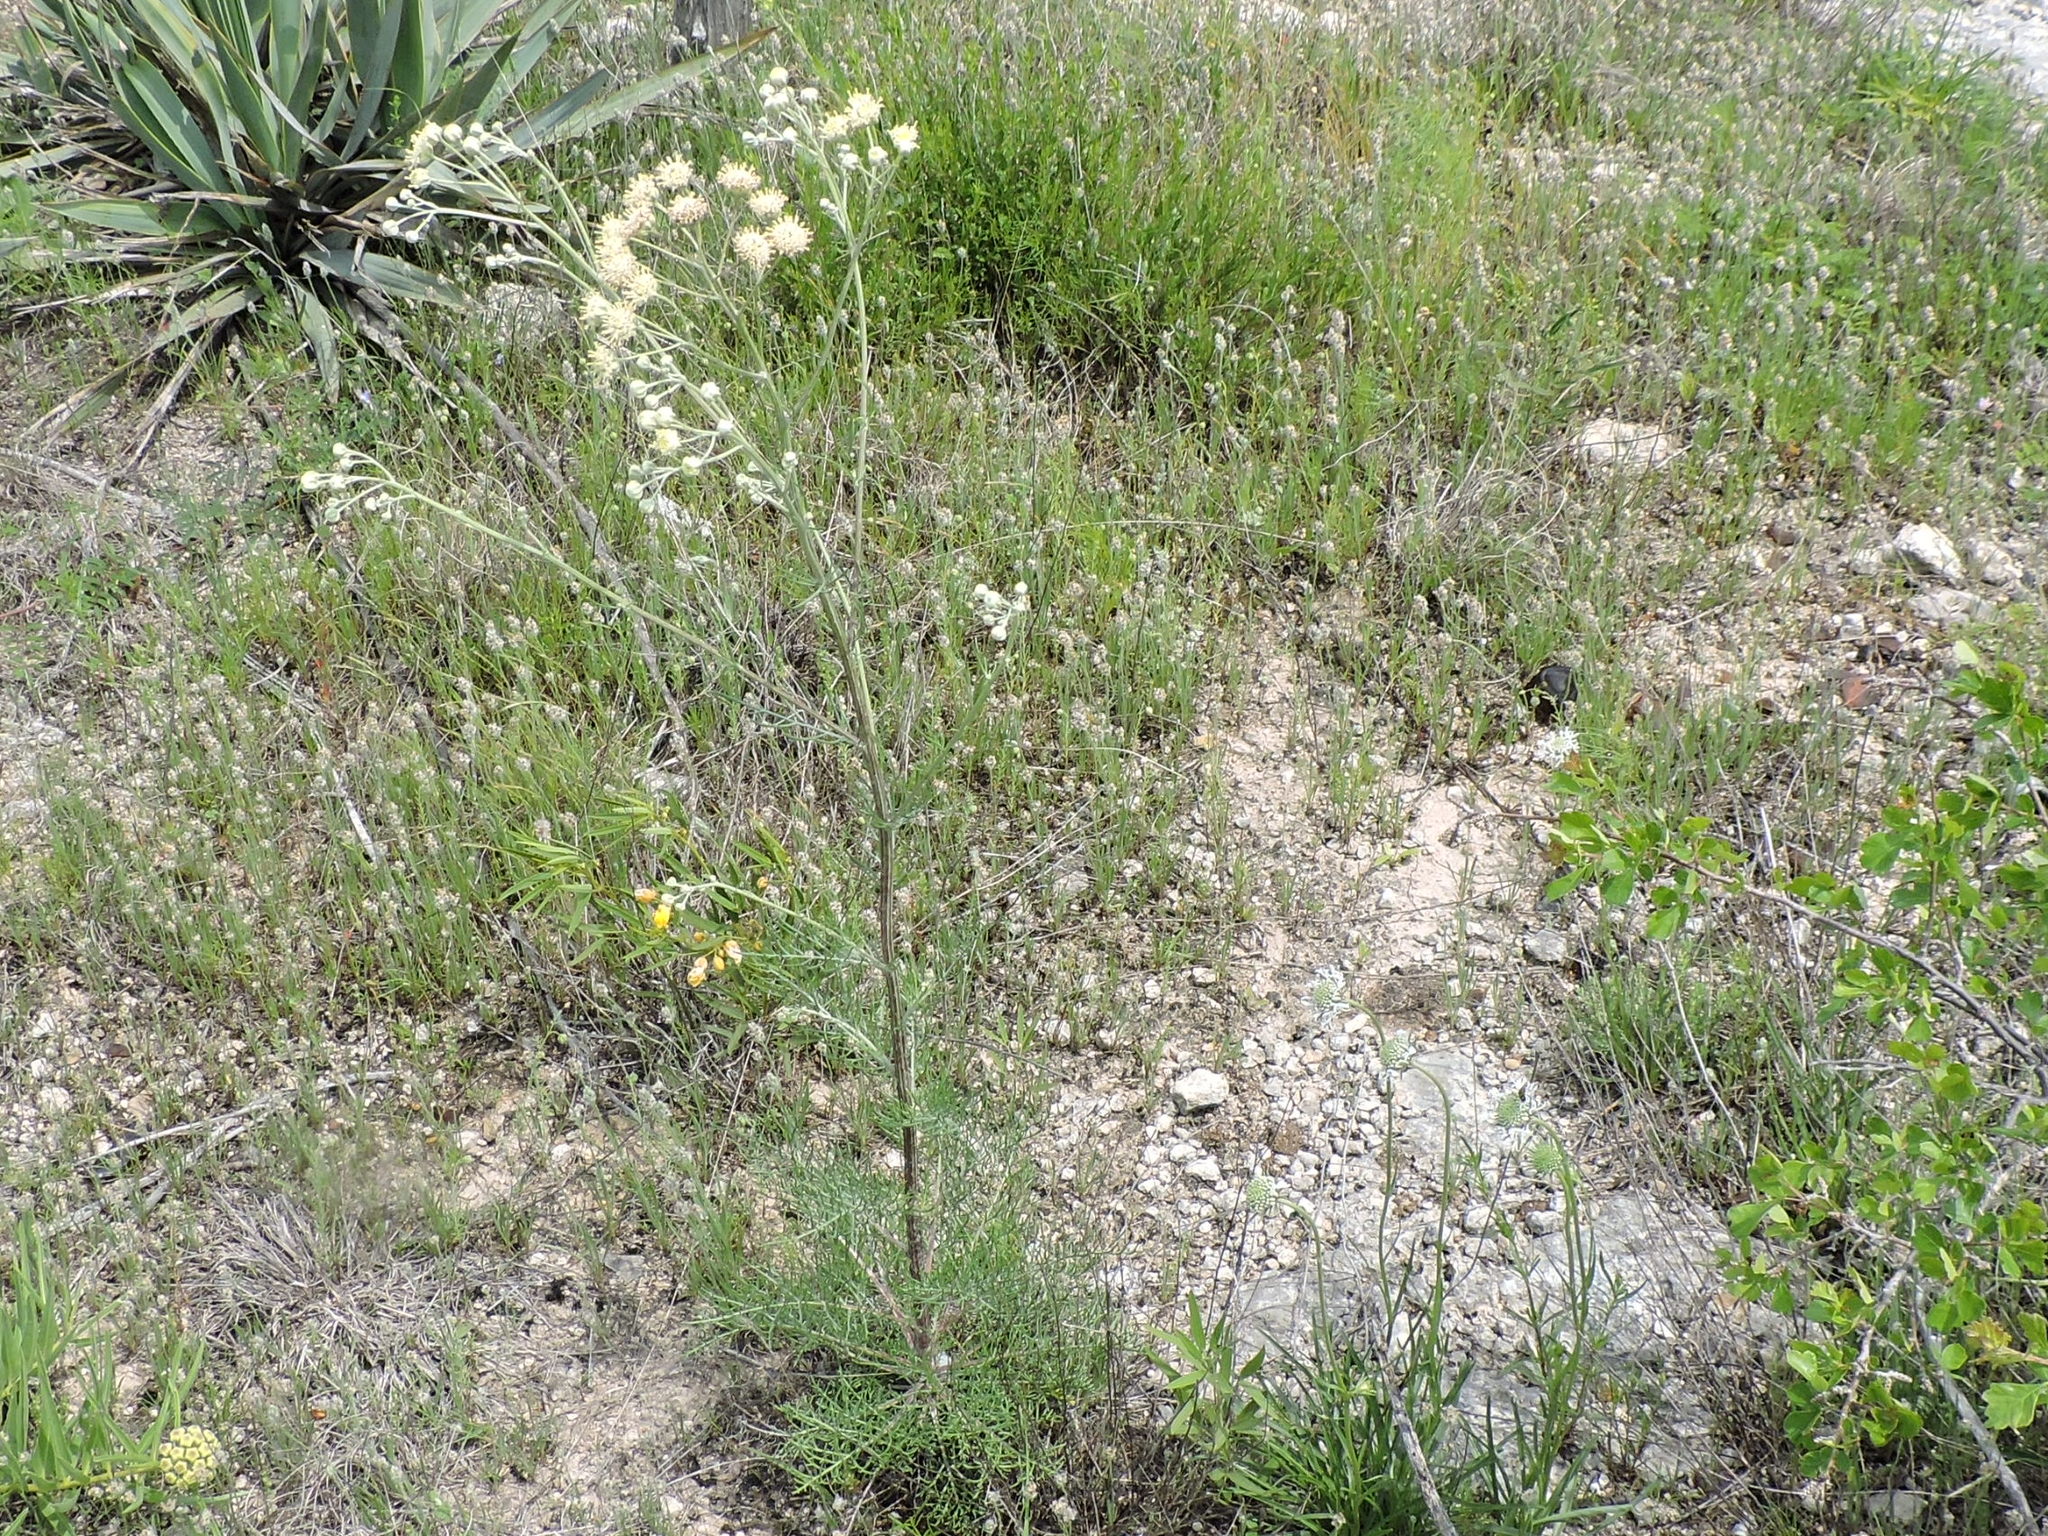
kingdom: Plantae
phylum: Tracheophyta
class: Magnoliopsida
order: Asterales
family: Asteraceae
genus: Hymenopappus
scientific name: Hymenopappus scabiosaeus
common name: Carolina woollywhite
